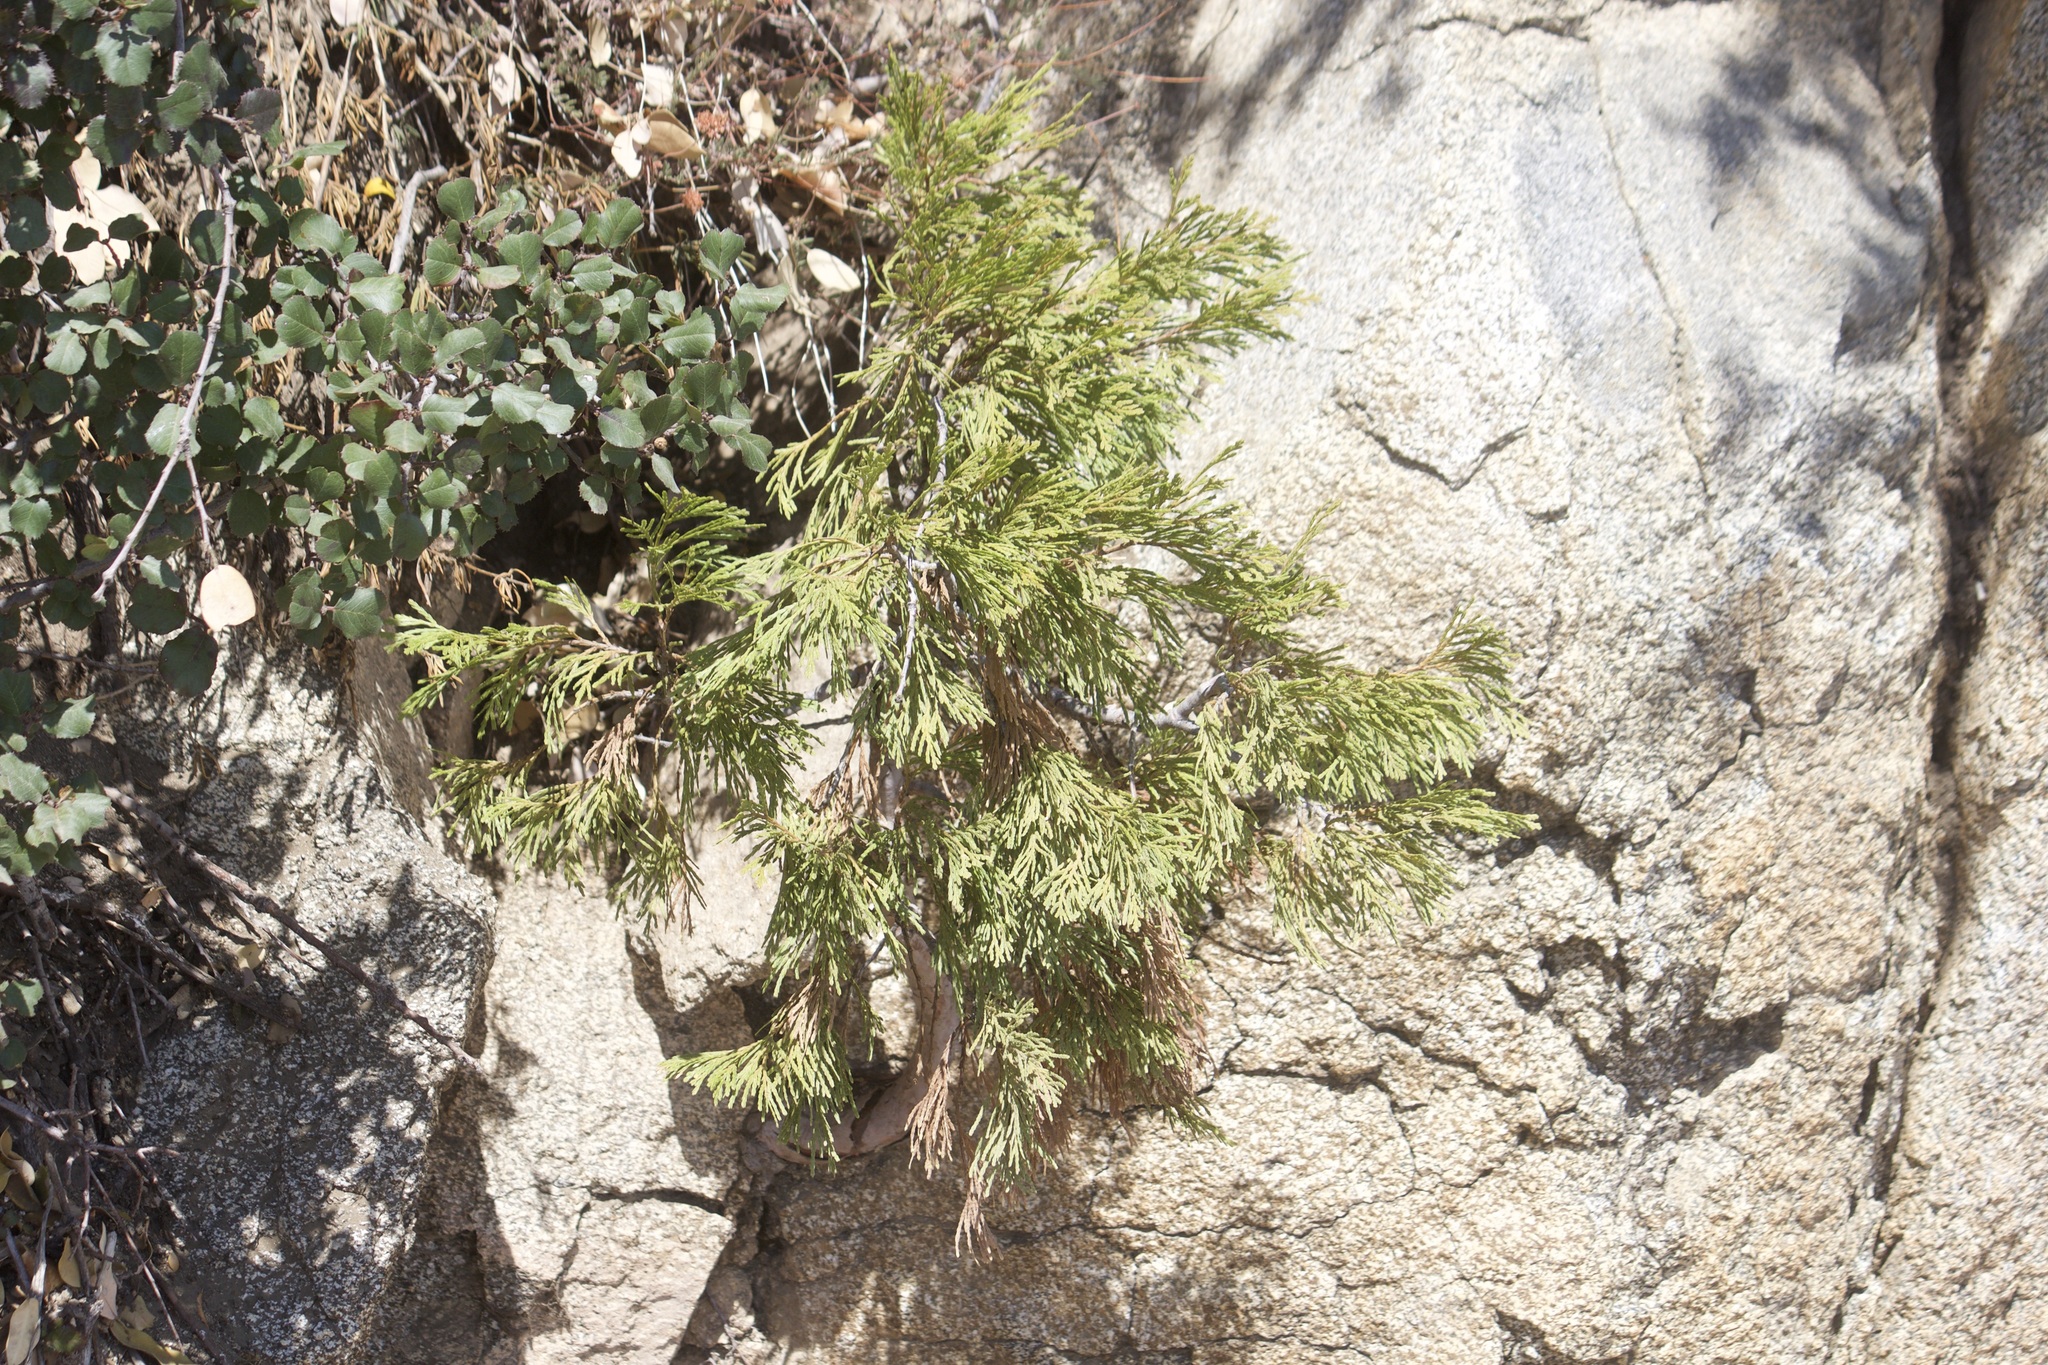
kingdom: Plantae
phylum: Tracheophyta
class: Pinopsida
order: Pinales
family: Cupressaceae
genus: Calocedrus
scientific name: Calocedrus decurrens
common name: Californian incense-cedar
